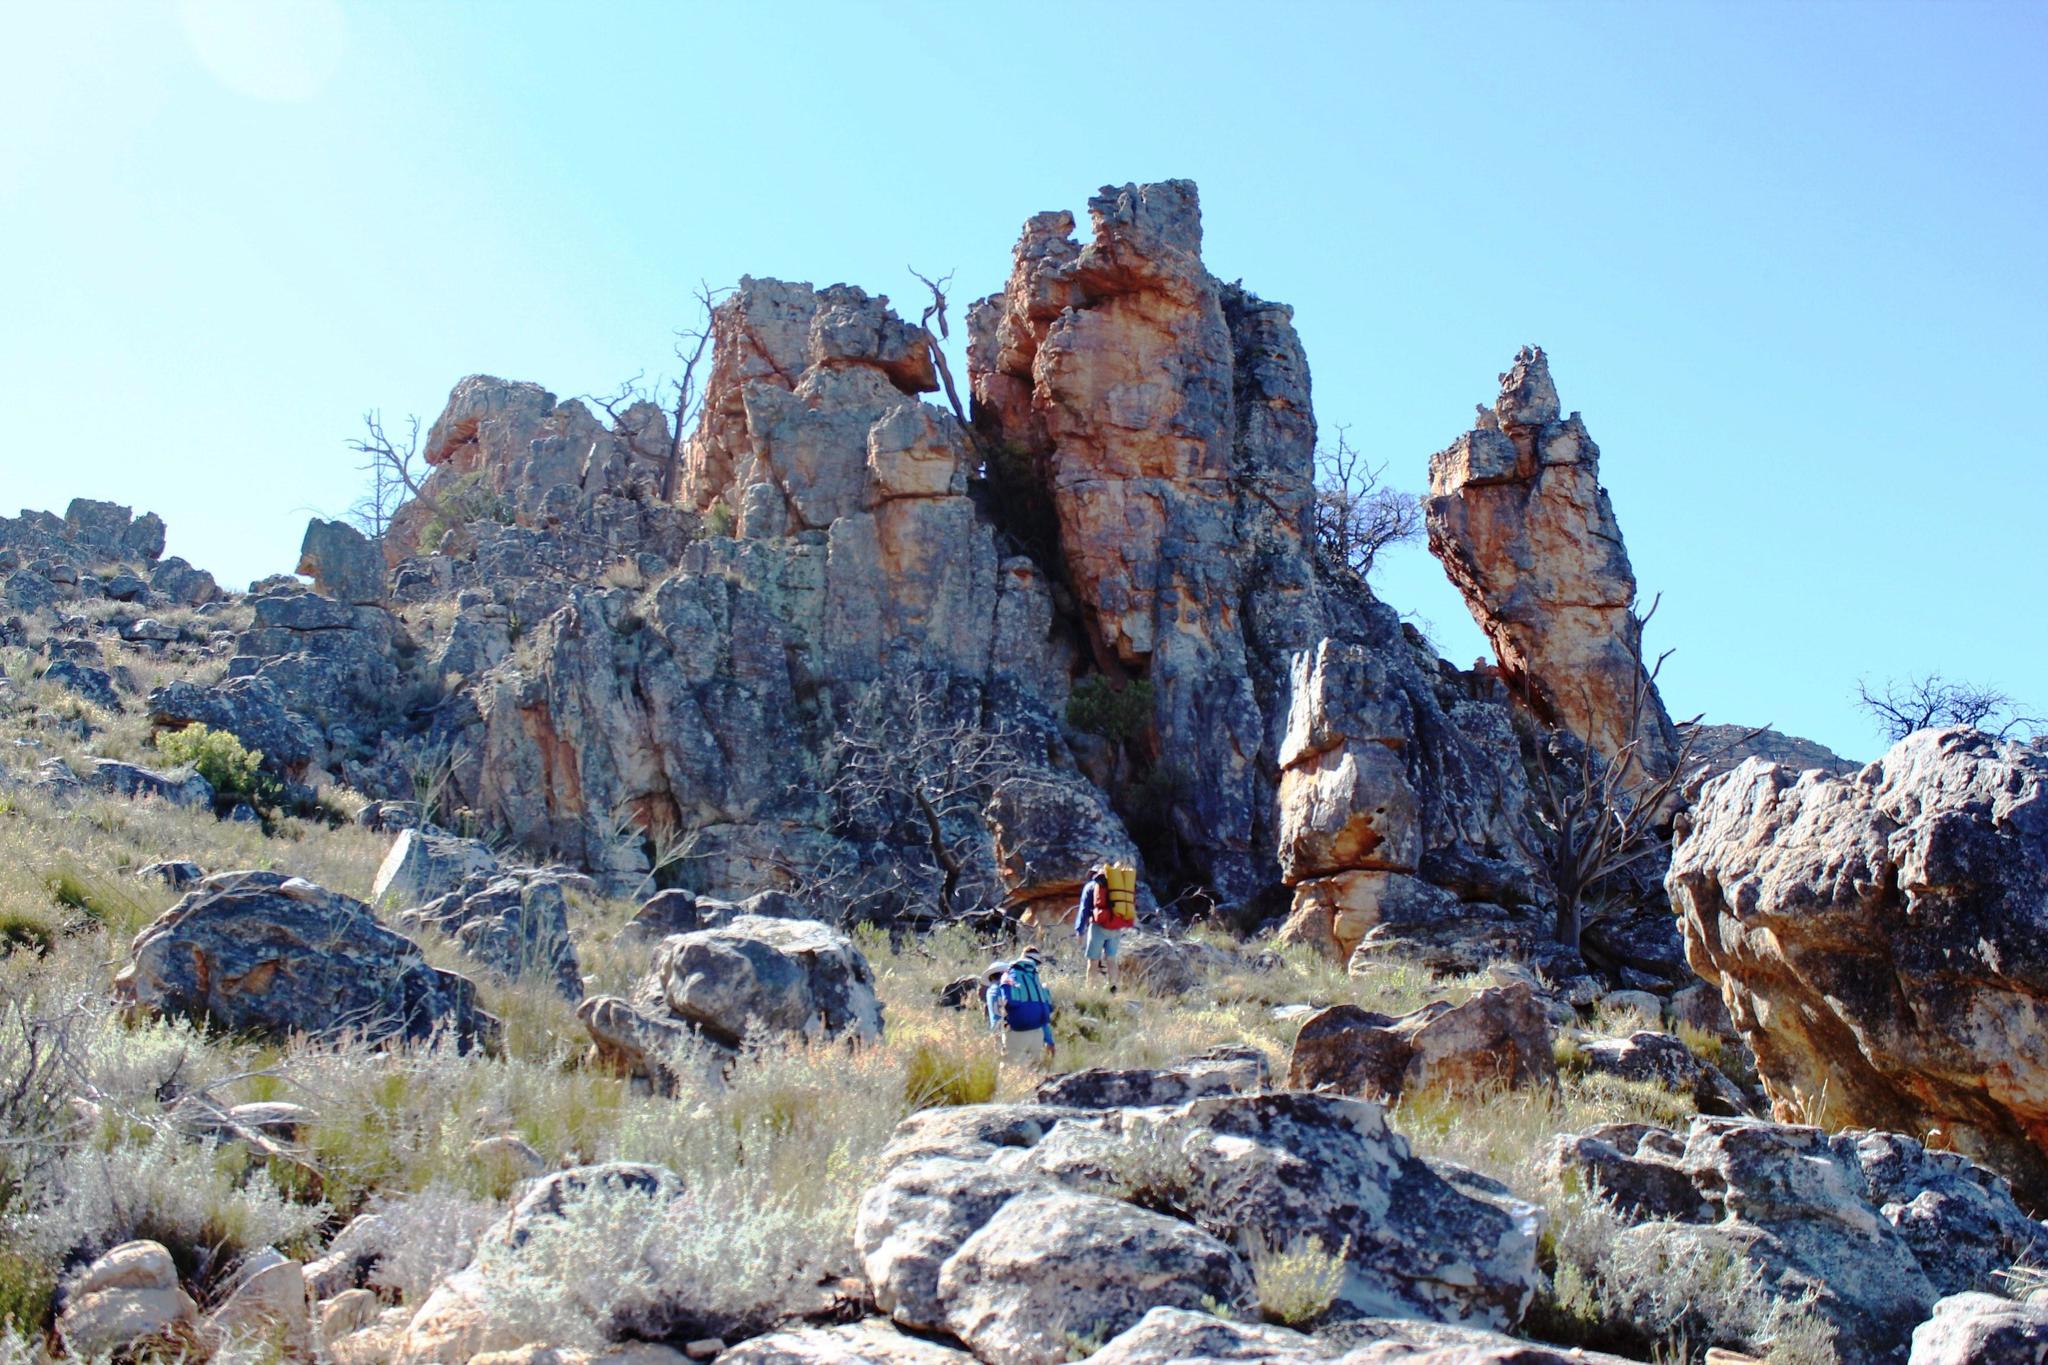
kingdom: Plantae
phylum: Tracheophyta
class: Pinopsida
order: Pinales
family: Cupressaceae
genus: Widdringtonia
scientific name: Widdringtonia nodiflora
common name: Cape cypress
